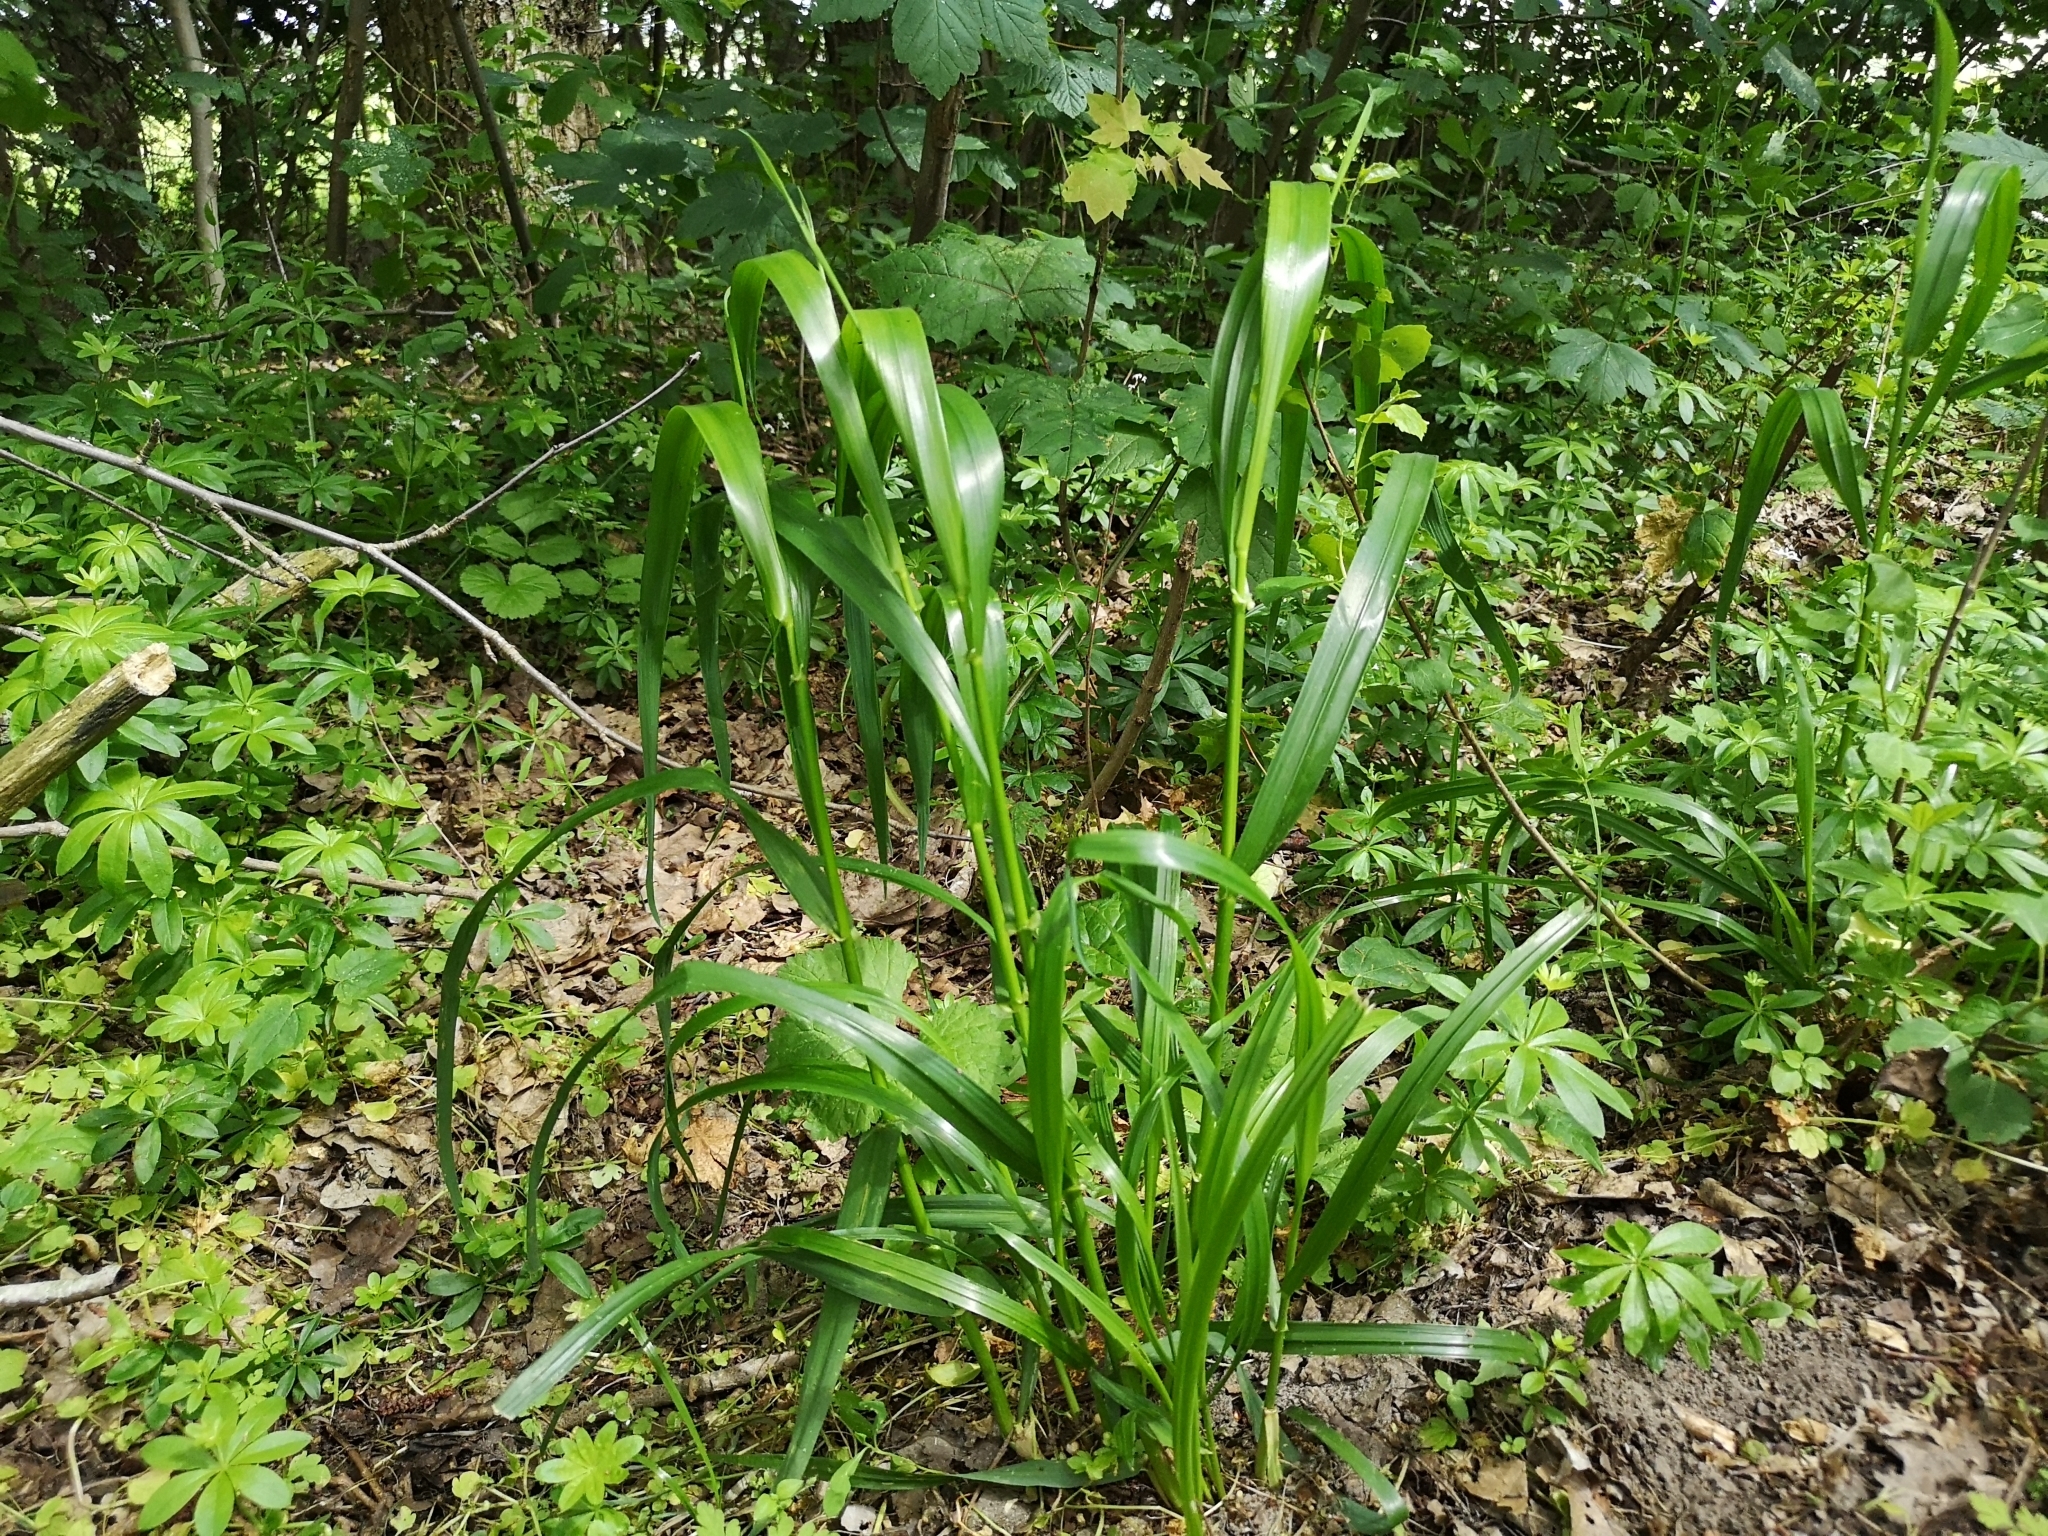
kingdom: Plantae
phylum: Tracheophyta
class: Liliopsida
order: Poales
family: Poaceae
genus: Lolium
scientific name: Lolium giganteum
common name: Giant fescue
